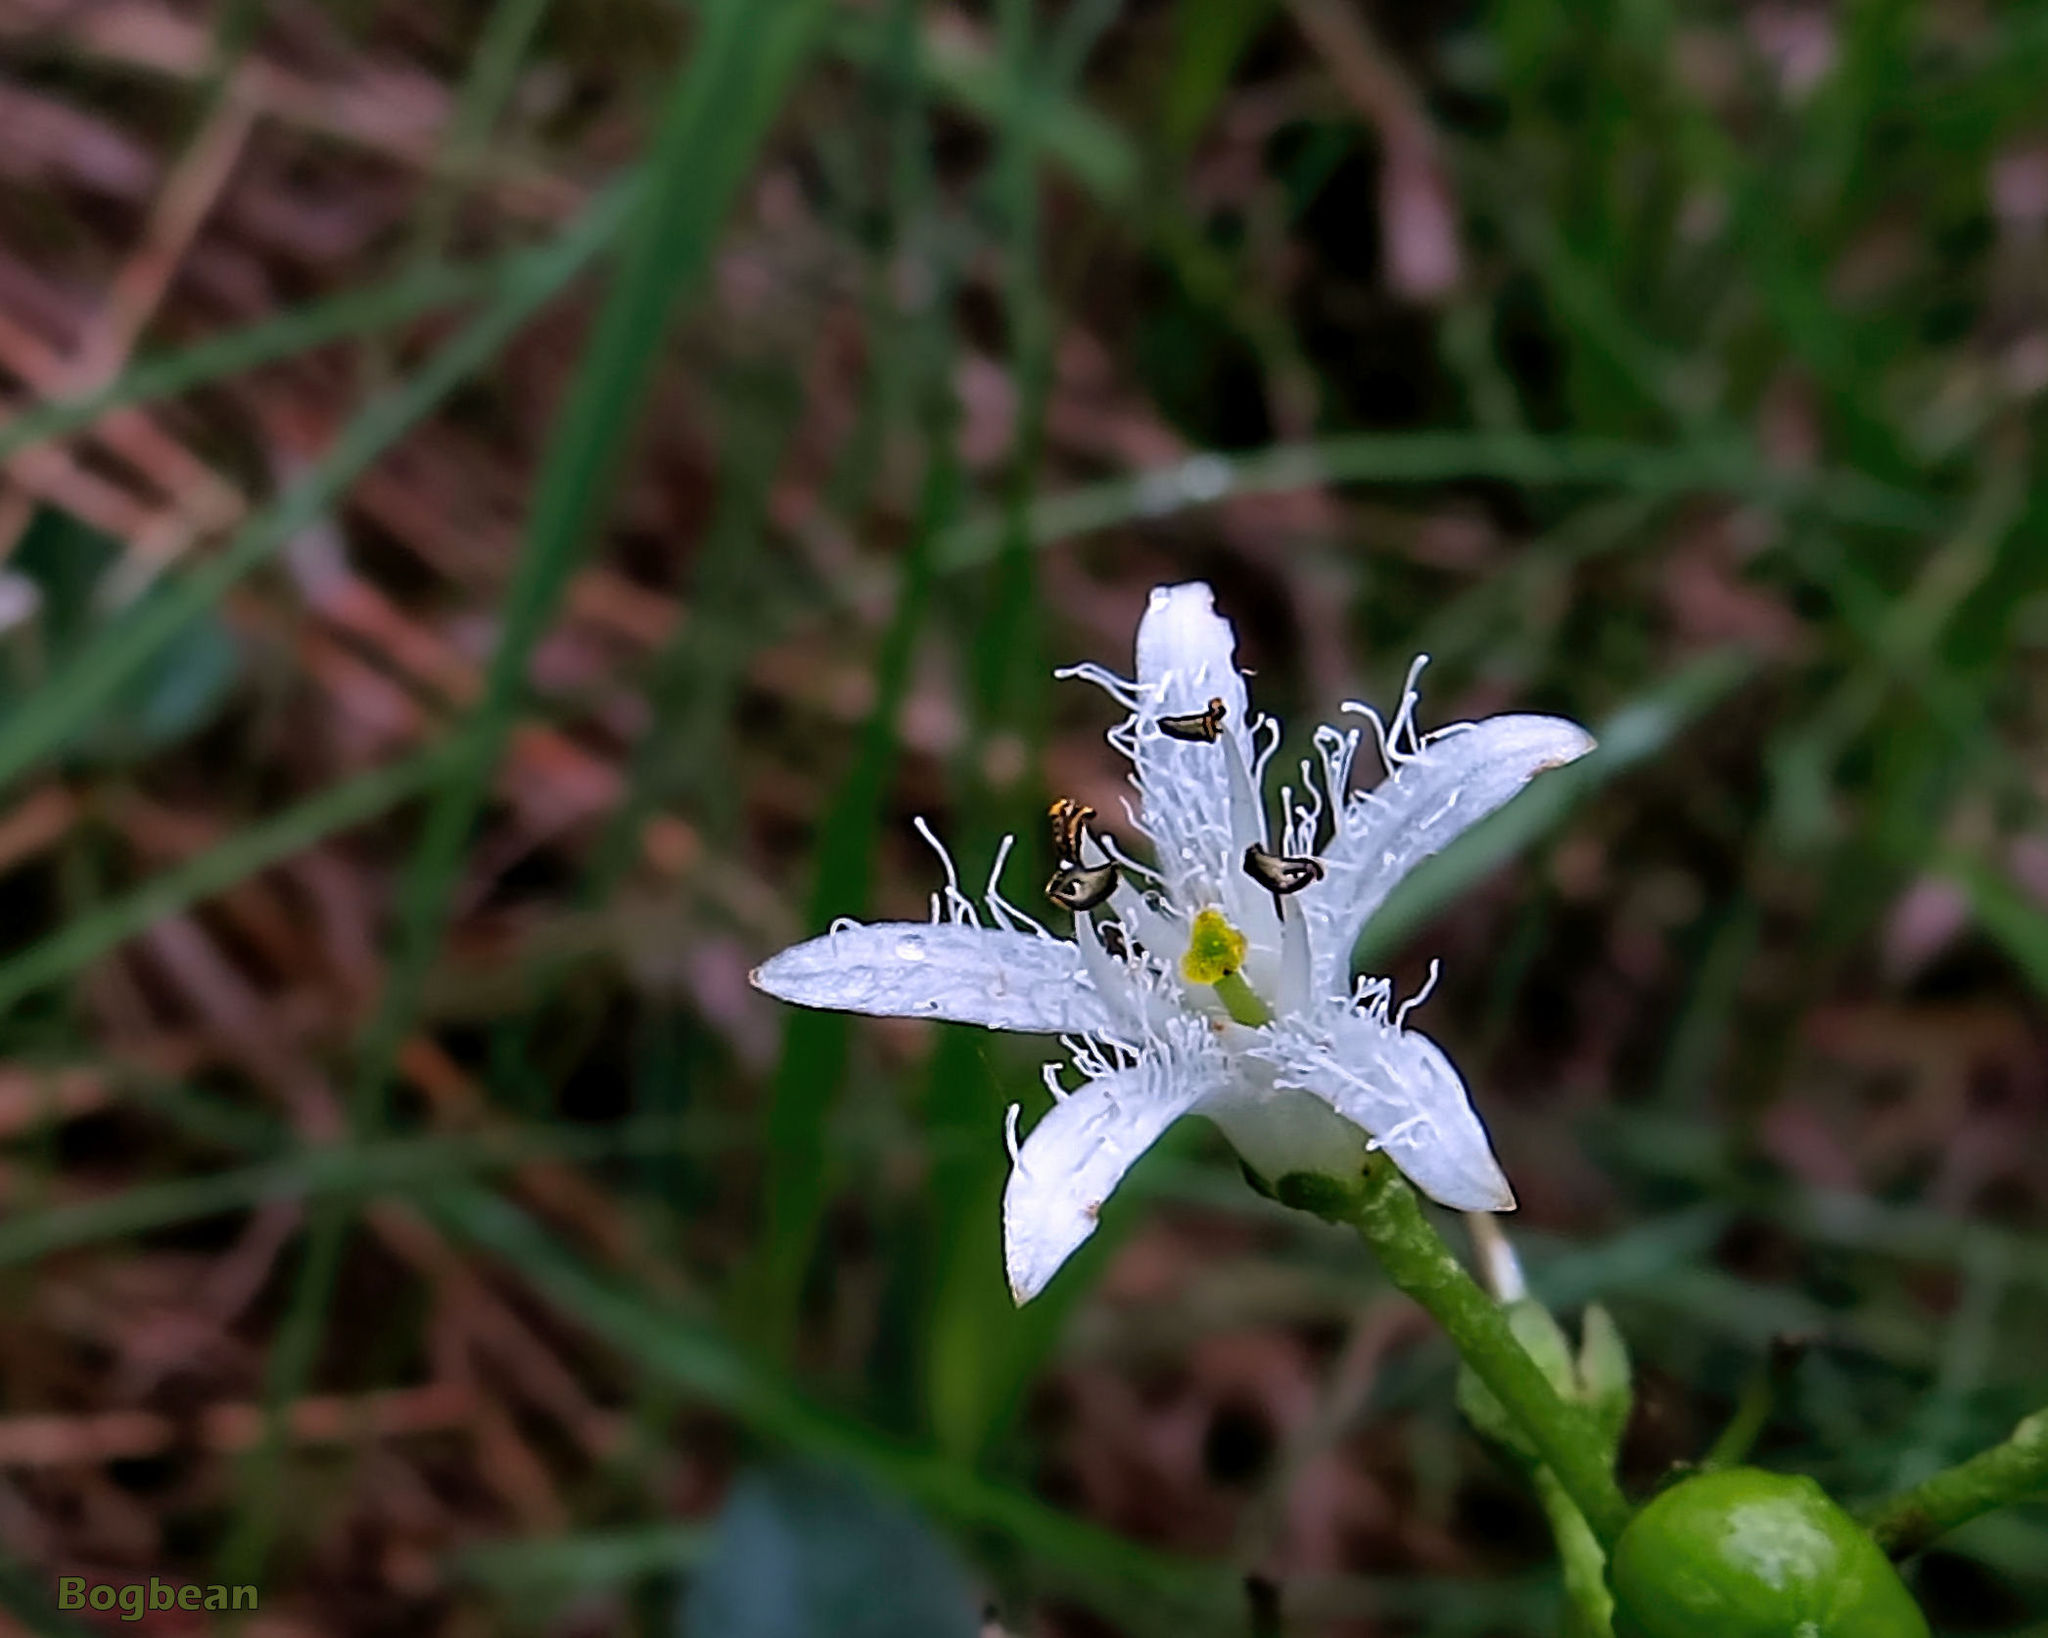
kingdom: Plantae
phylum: Tracheophyta
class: Magnoliopsida
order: Asterales
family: Menyanthaceae
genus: Menyanthes
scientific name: Menyanthes trifoliata
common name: Bogbean
